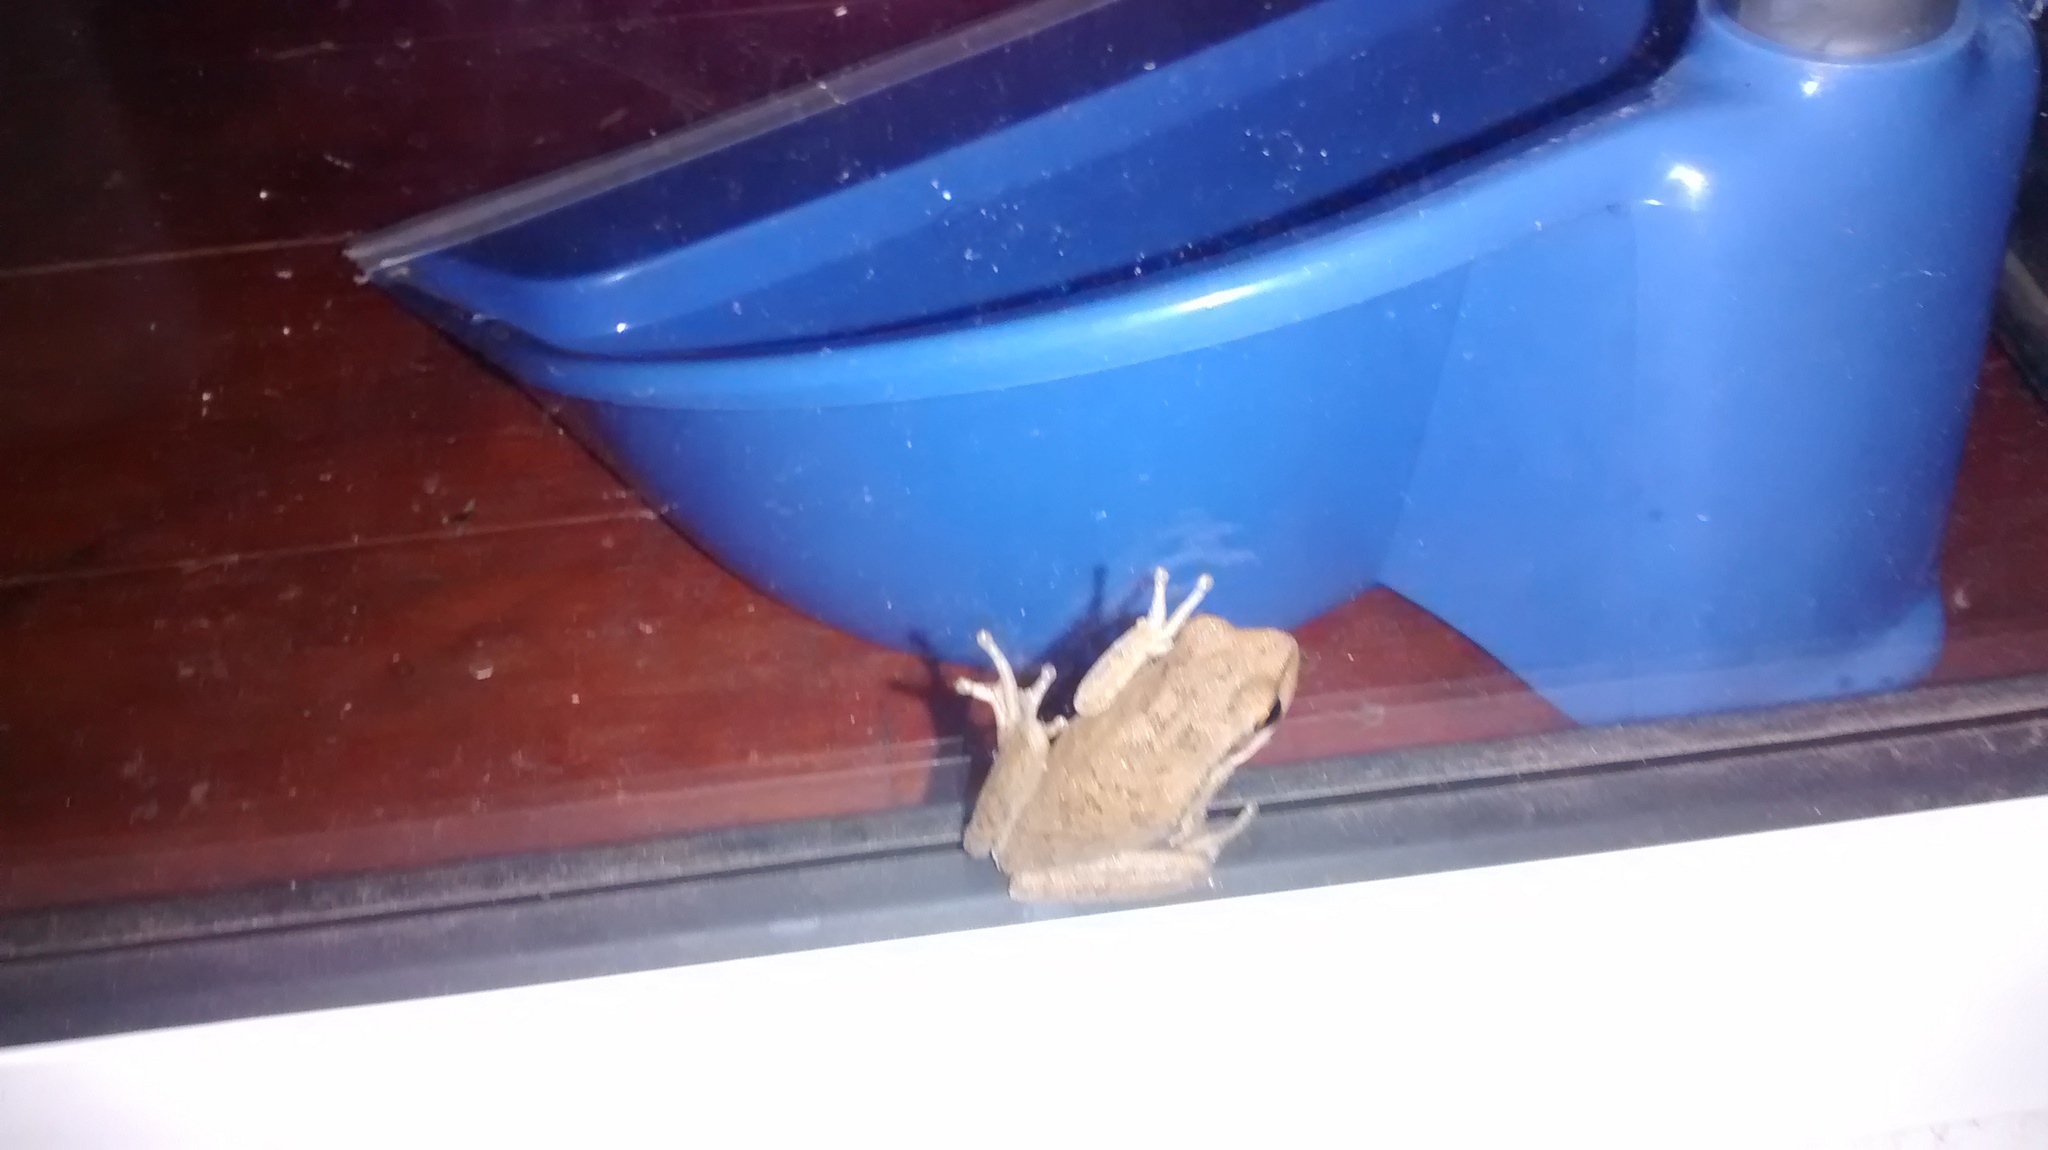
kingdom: Animalia
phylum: Chordata
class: Amphibia
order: Anura
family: Hylidae
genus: Boana
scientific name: Boana pulchella
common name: Montevideo treefrog
